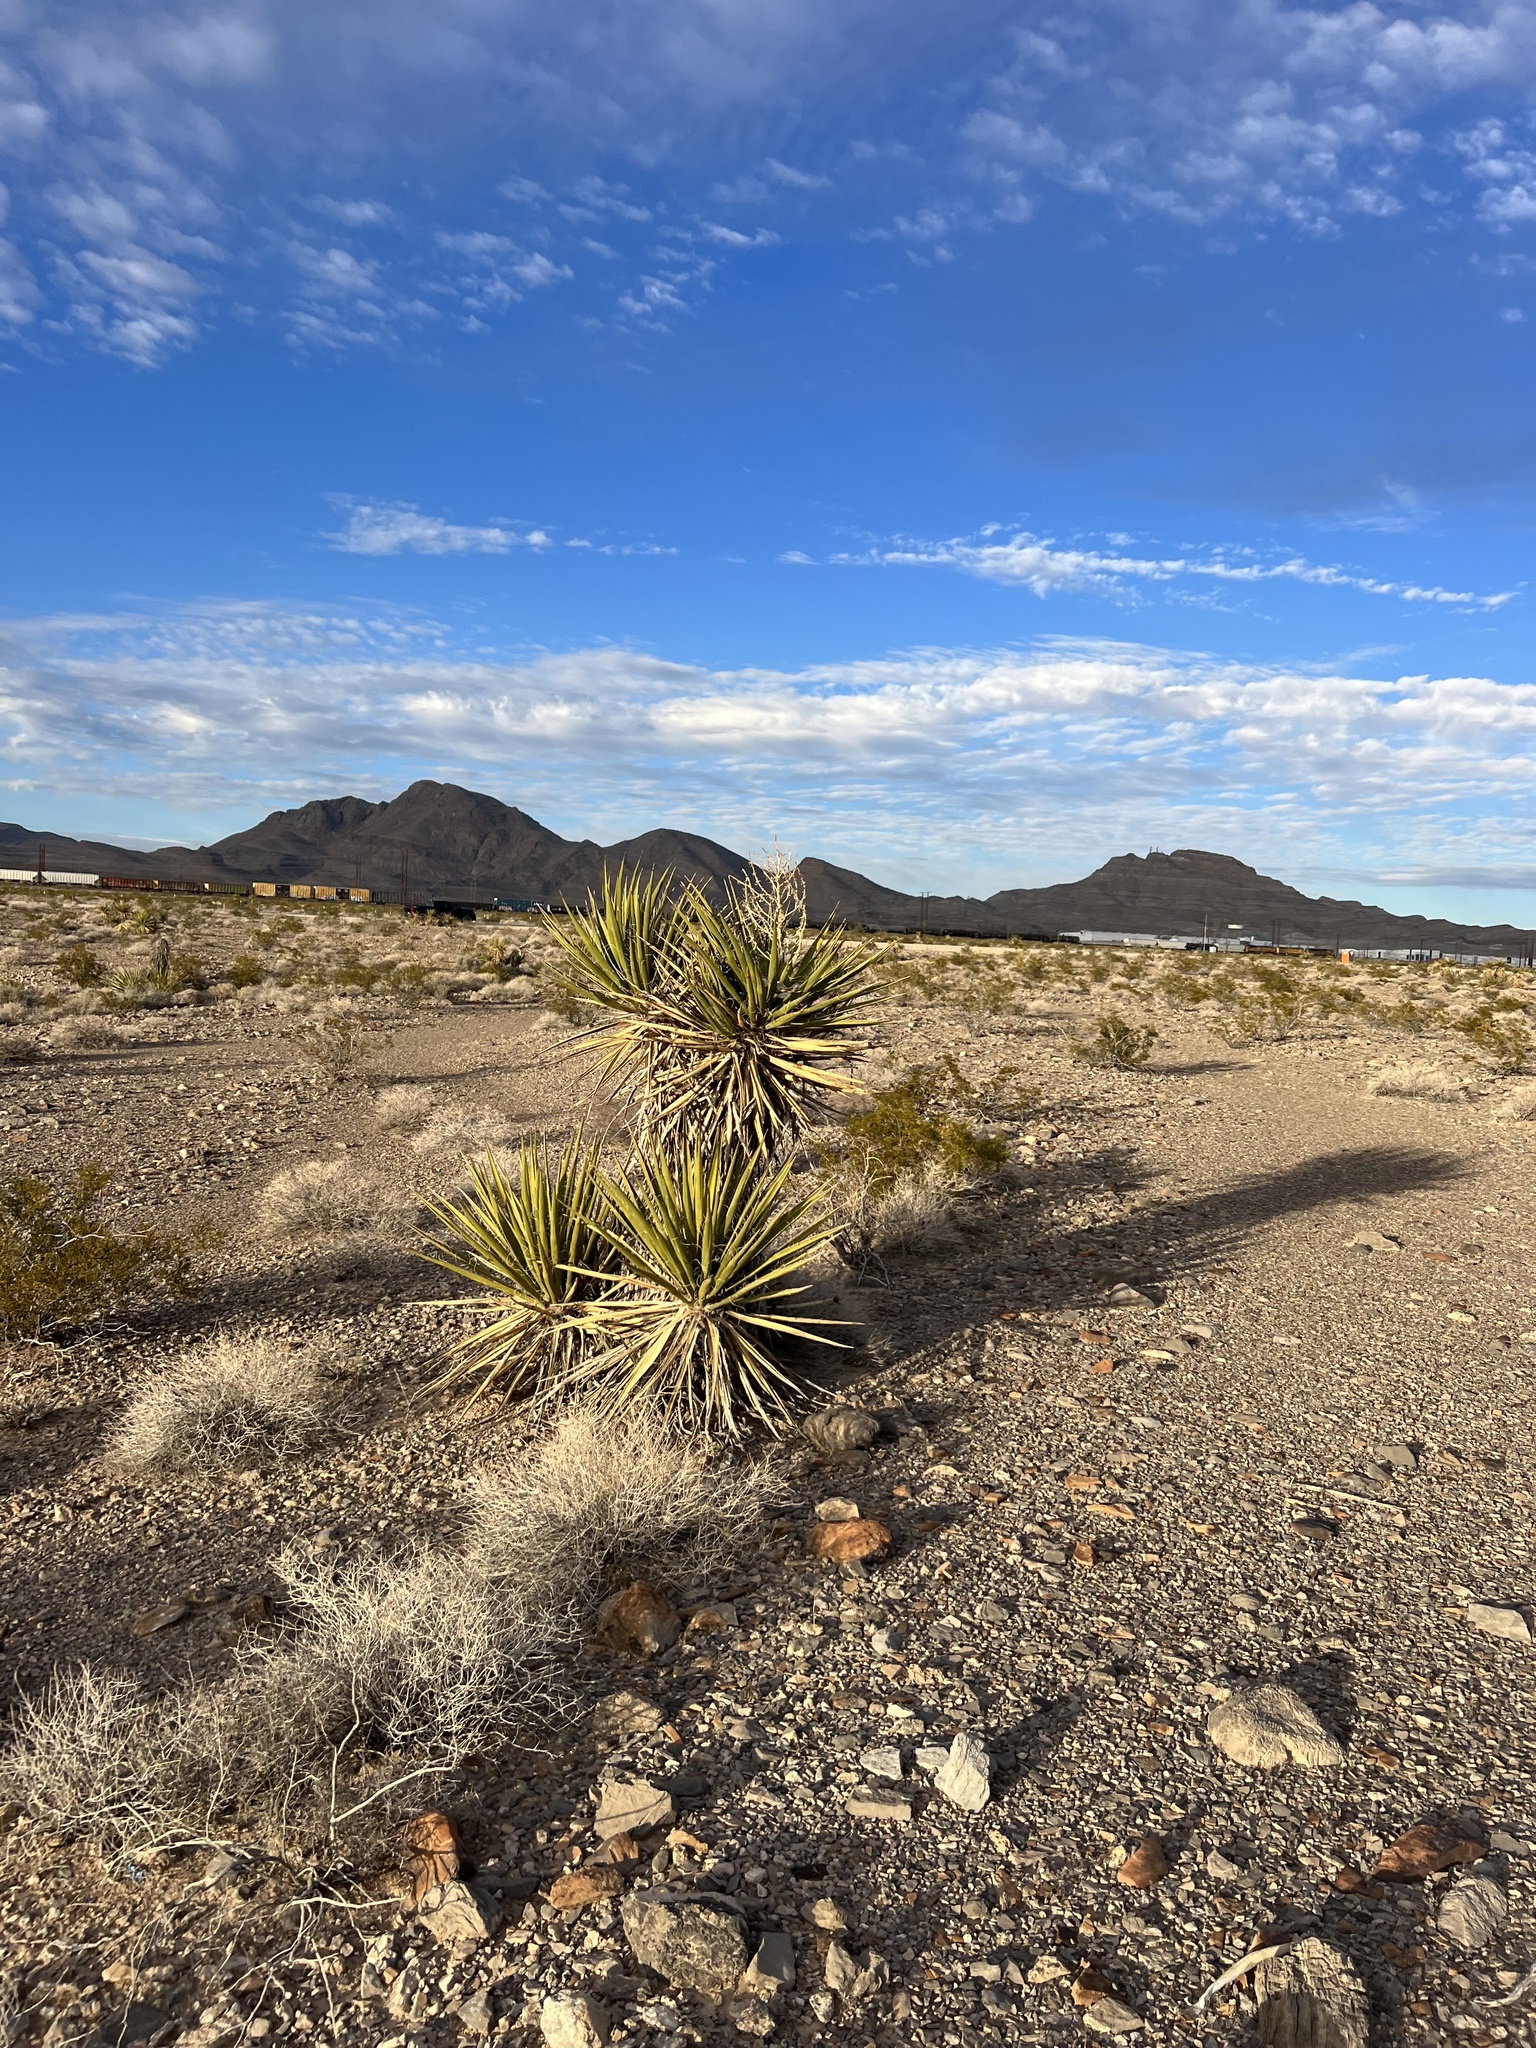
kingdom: Plantae
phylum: Tracheophyta
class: Liliopsida
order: Asparagales
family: Asparagaceae
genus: Yucca
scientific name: Yucca schidigera
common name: Mojave yucca
